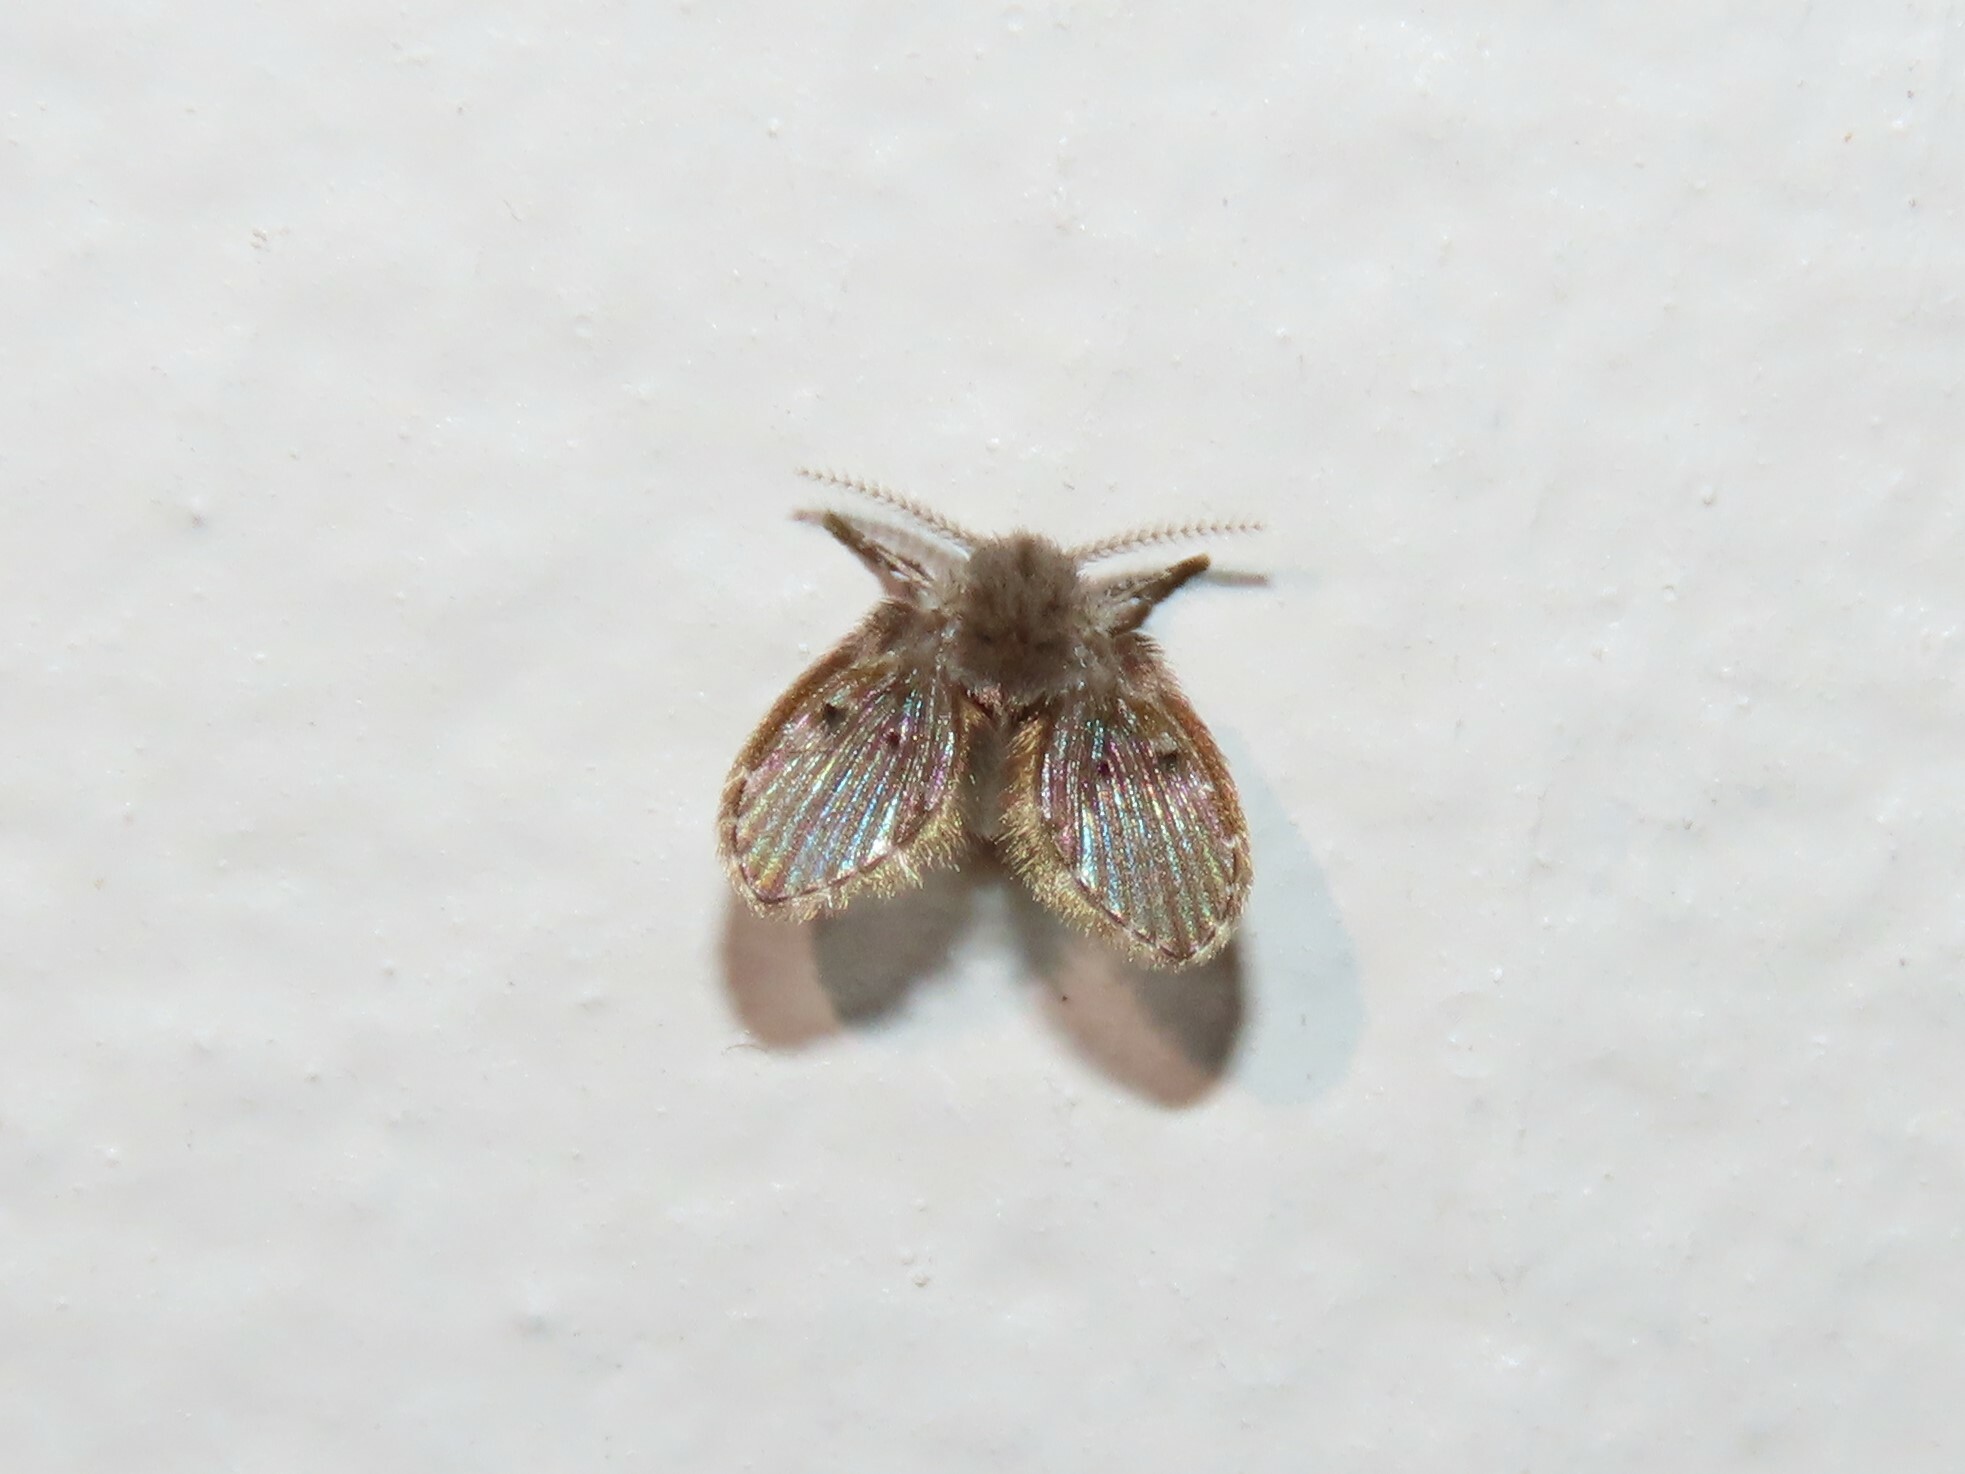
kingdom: Animalia
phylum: Arthropoda
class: Insecta
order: Diptera
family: Psychodidae
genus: Clogmia
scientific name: Clogmia albipunctatus
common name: White-spotted moth fly
